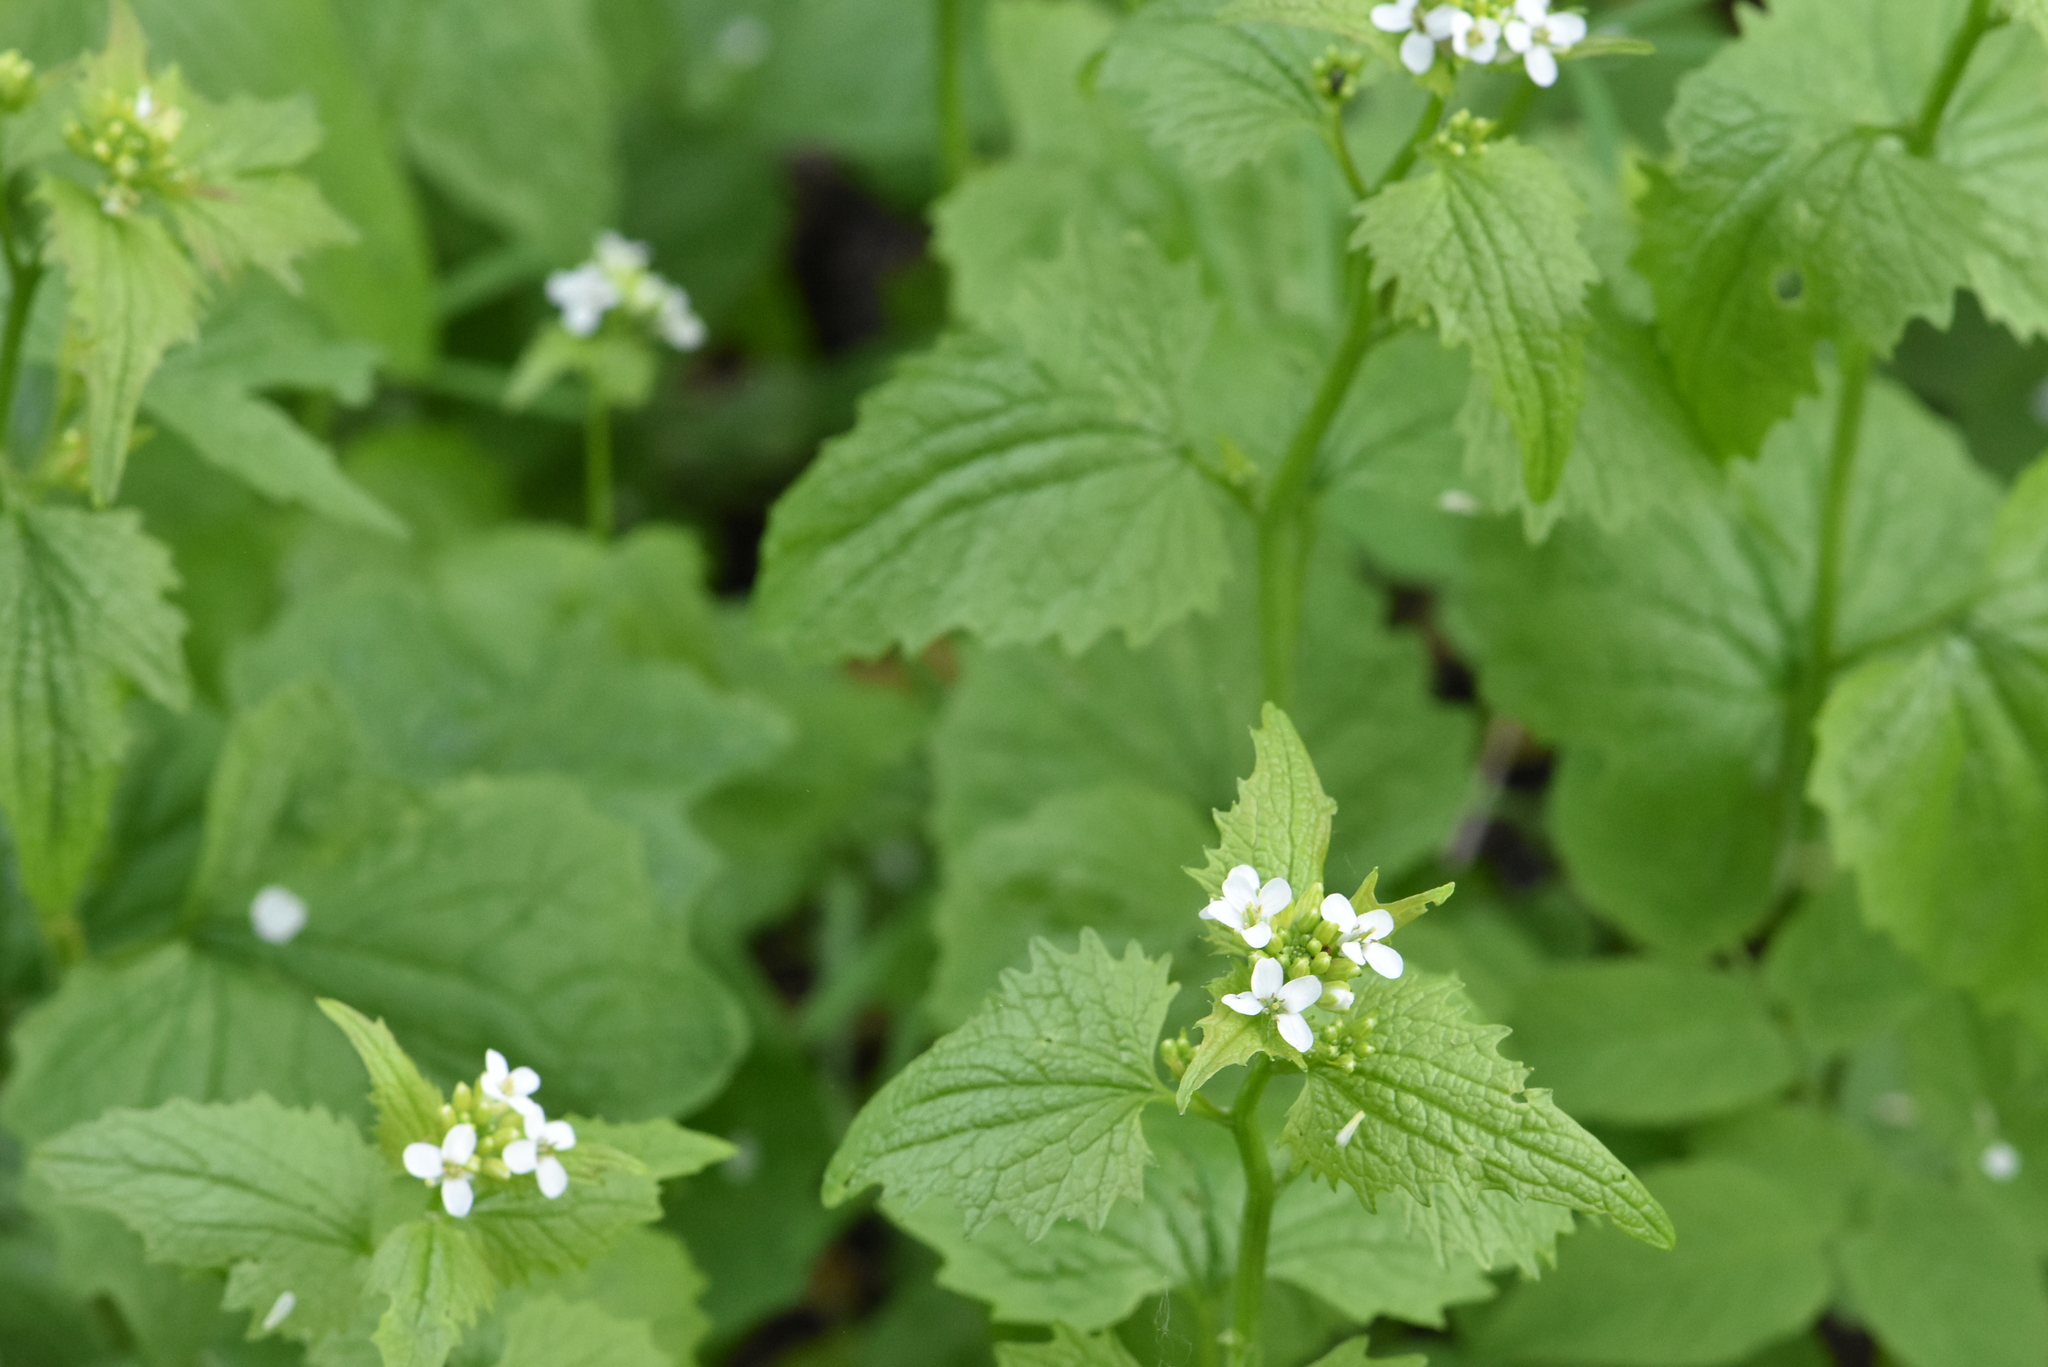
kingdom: Plantae
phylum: Tracheophyta
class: Magnoliopsida
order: Brassicales
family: Brassicaceae
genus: Alliaria
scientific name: Alliaria petiolata
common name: Garlic mustard
